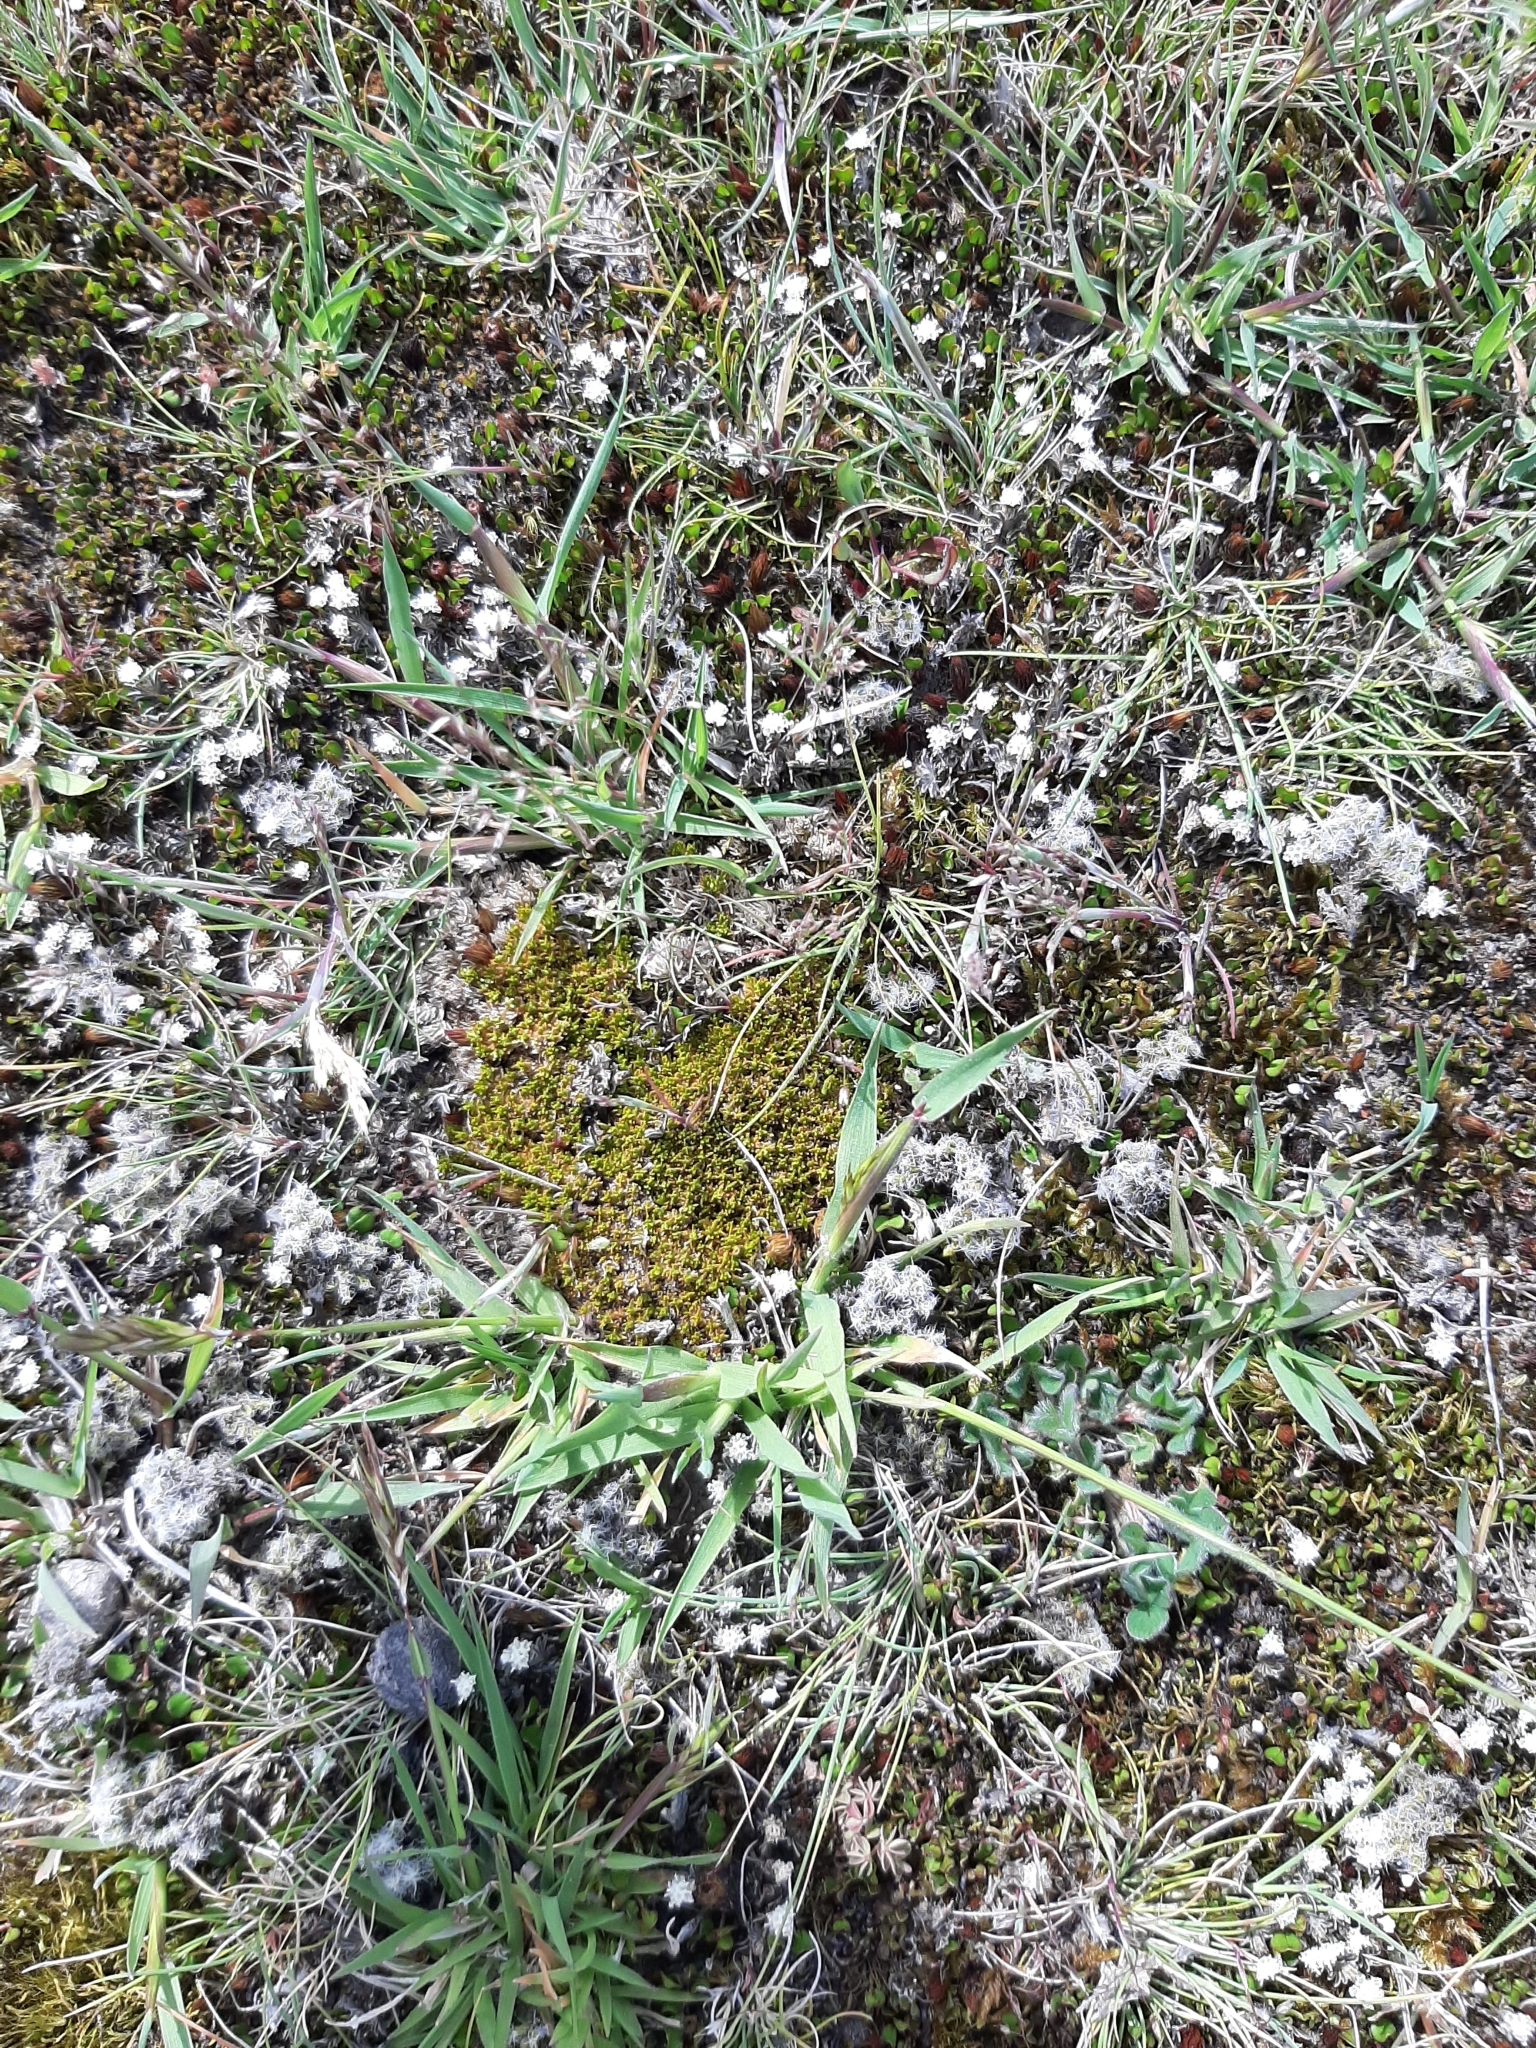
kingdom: Plantae
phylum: Tracheophyta
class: Magnoliopsida
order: Caryophyllales
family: Caryophyllaceae
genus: Scleranthus
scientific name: Scleranthus uniflorus
